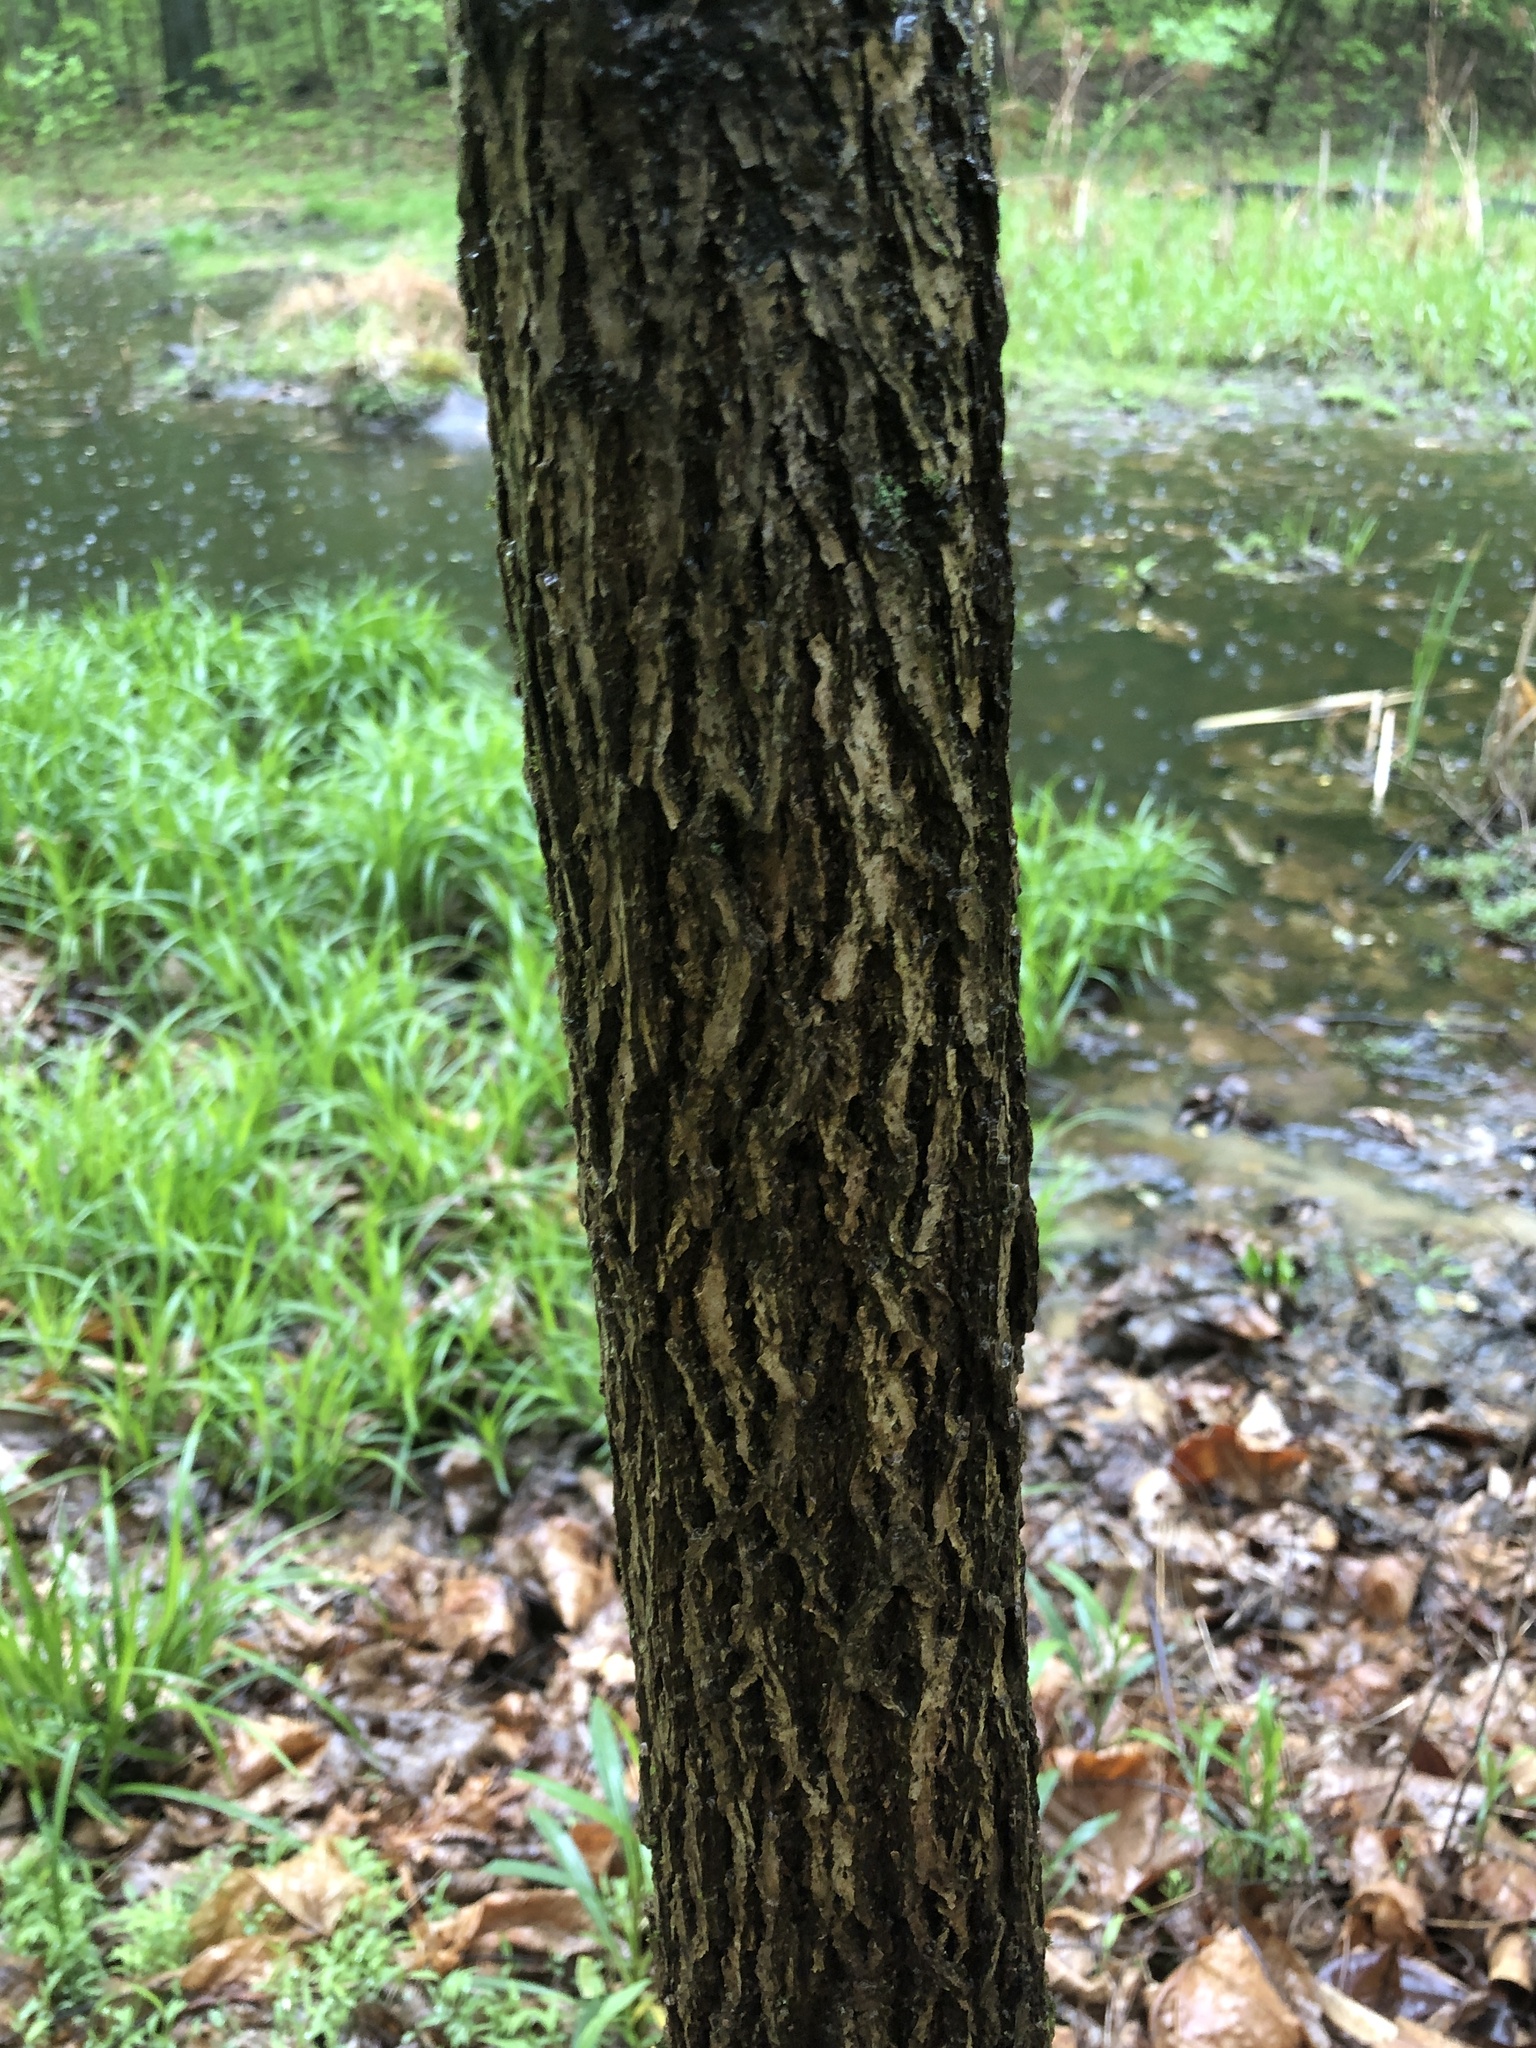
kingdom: Plantae
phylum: Tracheophyta
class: Magnoliopsida
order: Fagales
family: Juglandaceae
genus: Juglans
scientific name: Juglans nigra
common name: Black walnut
